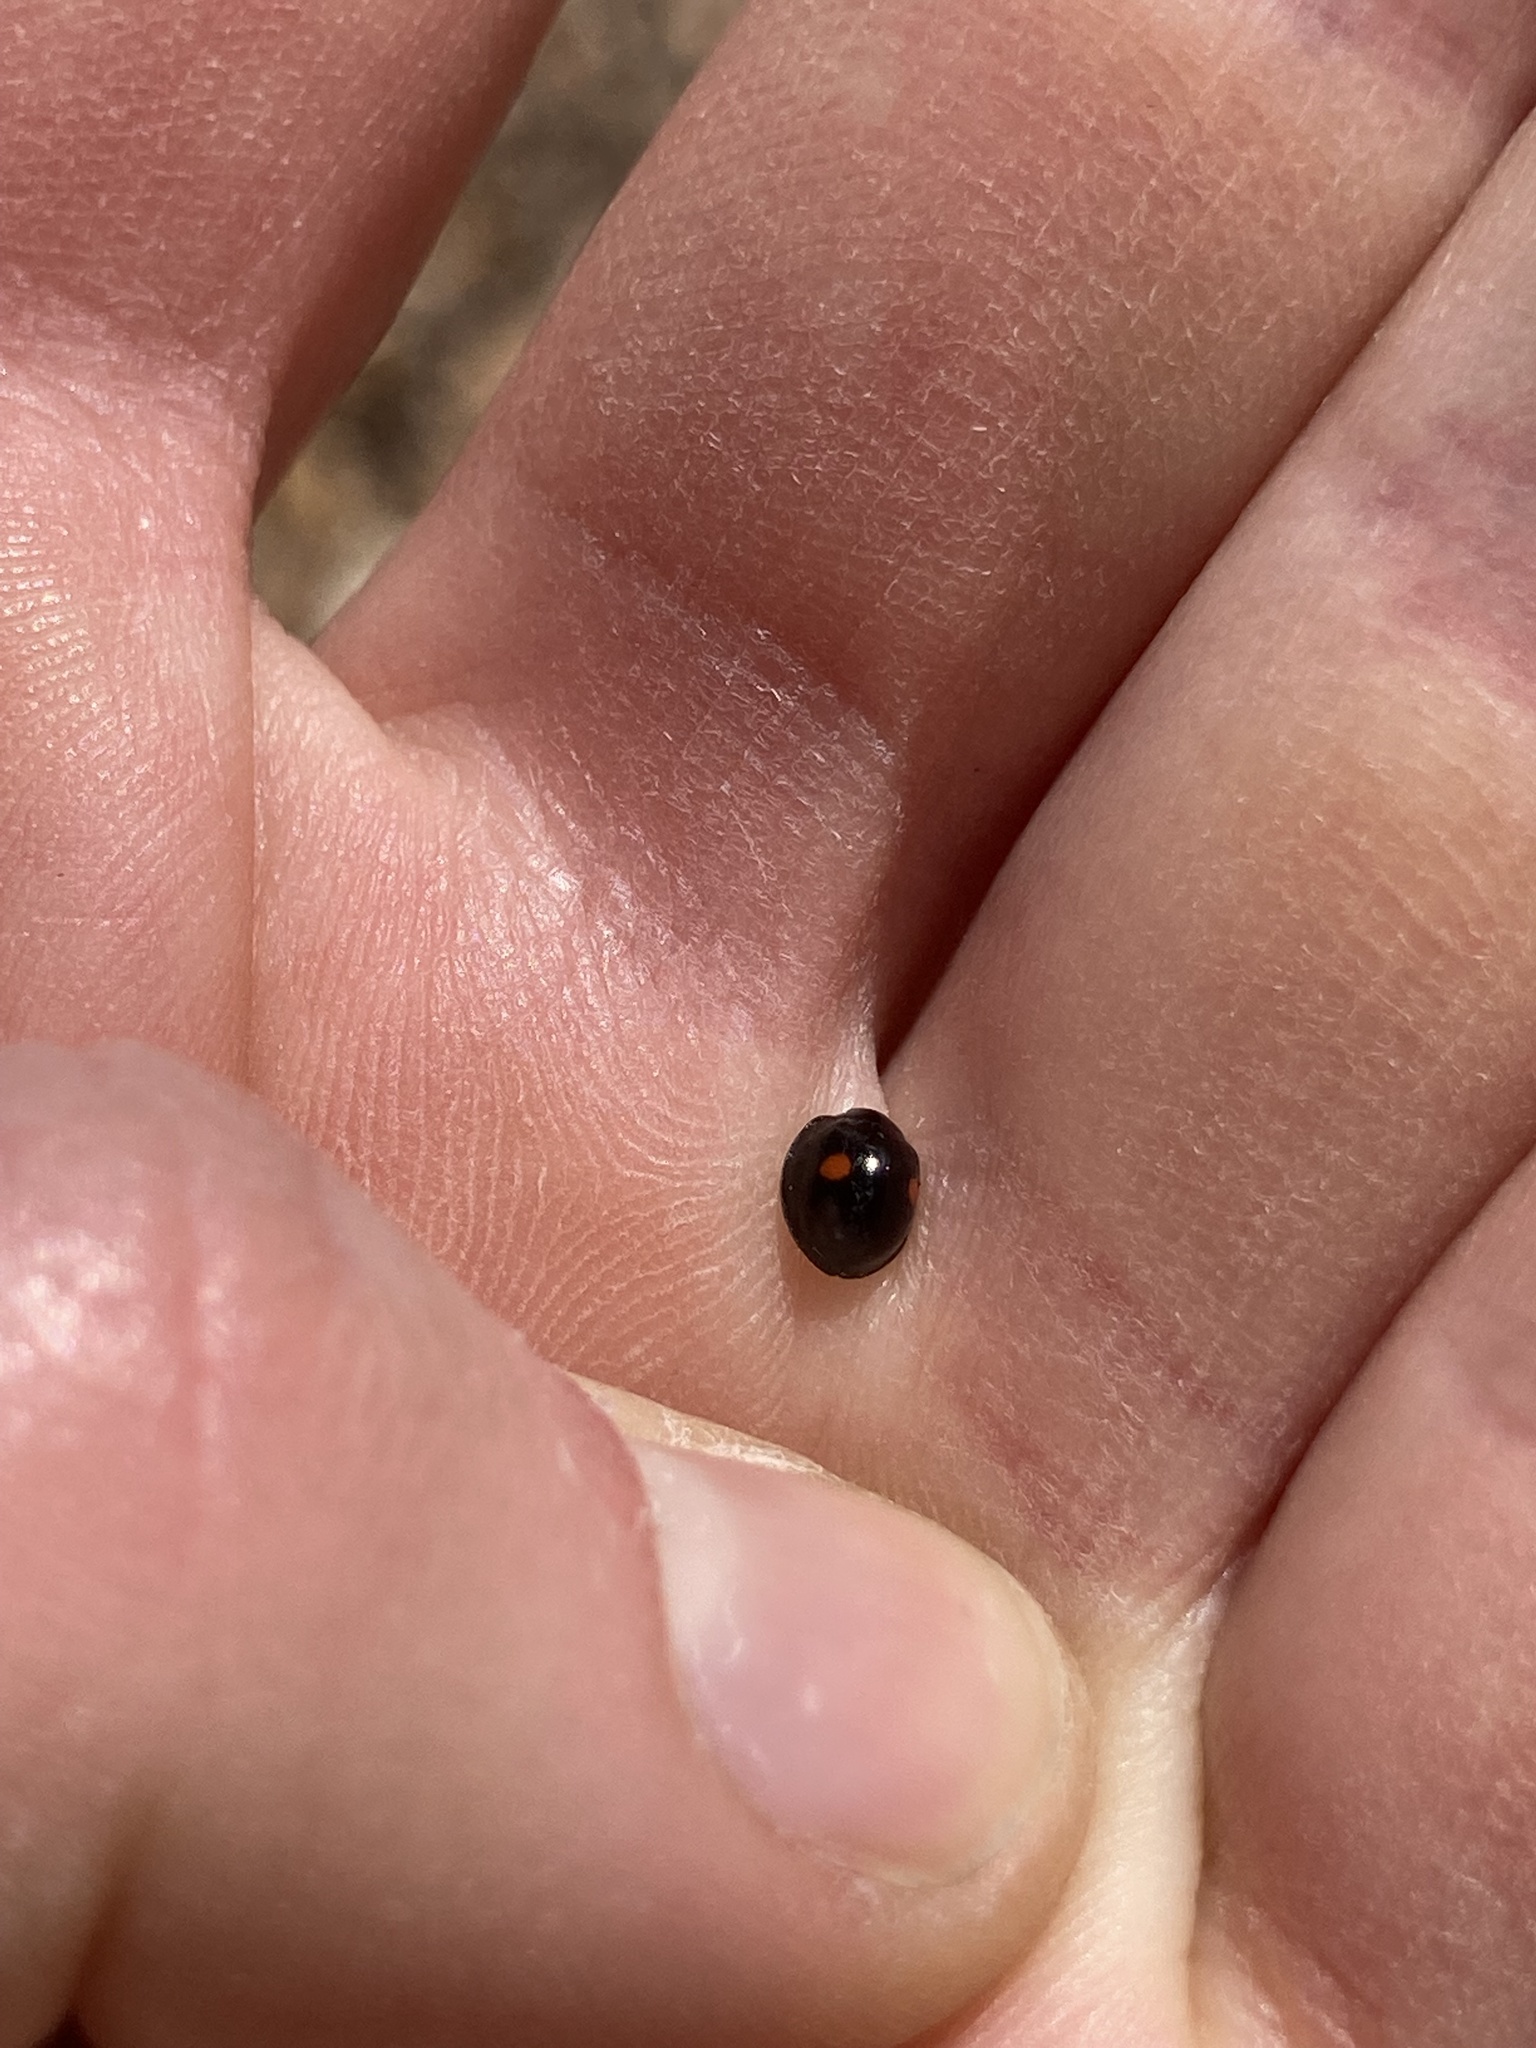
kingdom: Animalia
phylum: Arthropoda
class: Insecta
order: Coleoptera
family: Coccinellidae
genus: Chilocorus
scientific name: Chilocorus stigma
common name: Twicestabbed lady beetle
